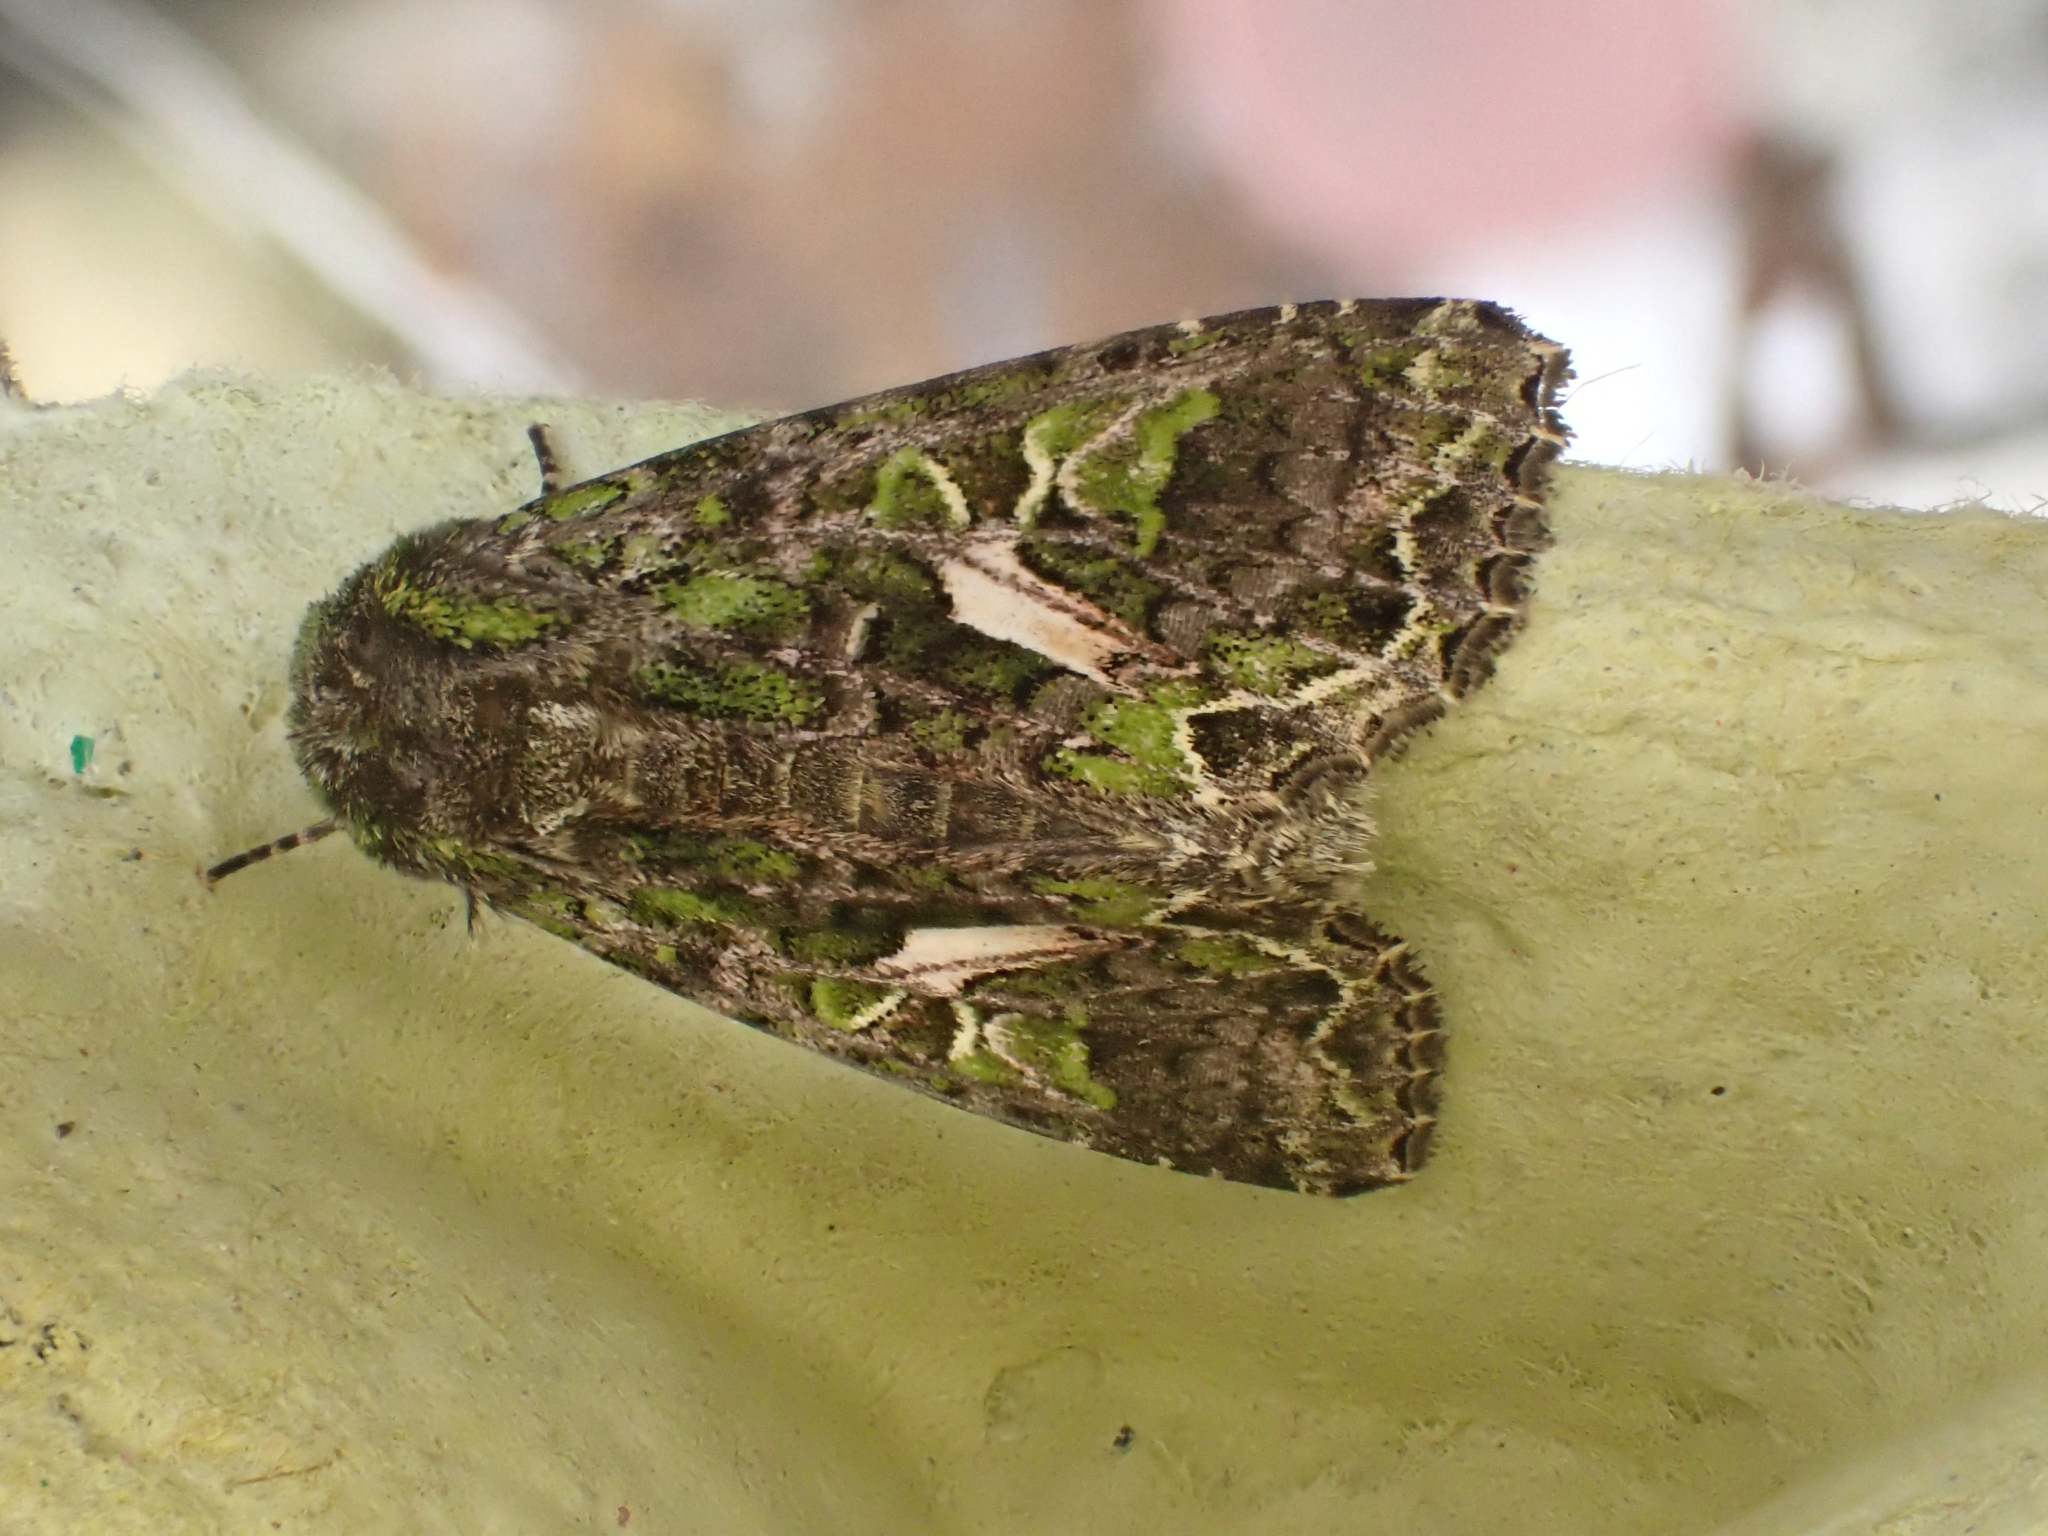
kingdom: Animalia
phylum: Arthropoda
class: Insecta
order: Lepidoptera
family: Noctuidae
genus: Trachea
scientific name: Trachea atriplicis
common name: Orache moth
